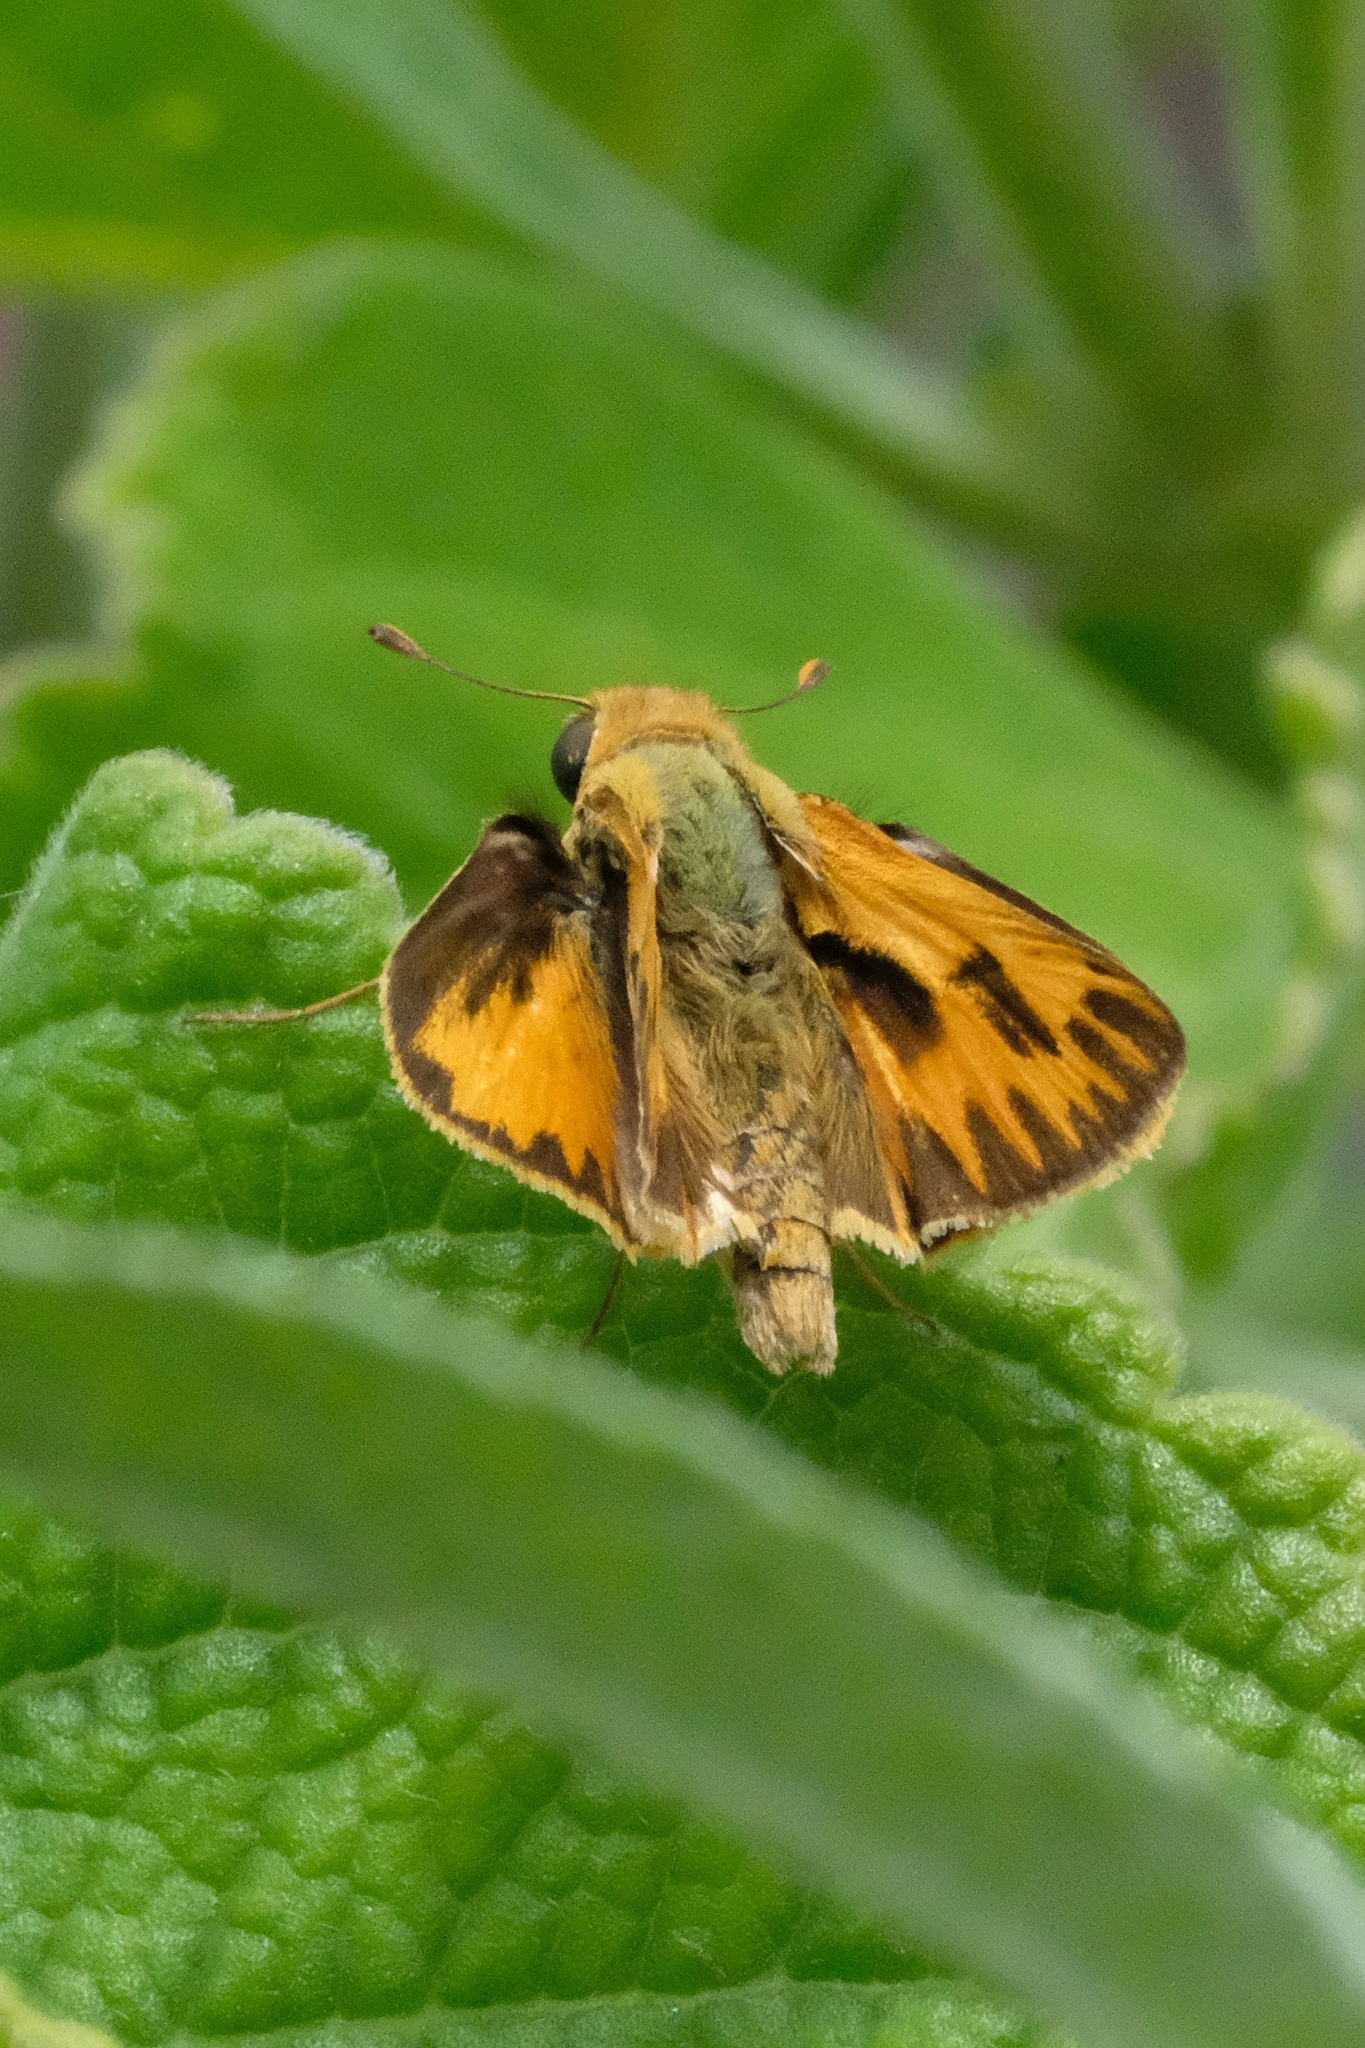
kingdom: Animalia
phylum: Arthropoda
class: Insecta
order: Lepidoptera
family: Hesperiidae
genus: Hylephila
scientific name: Hylephila phyleus
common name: Fiery skipper
